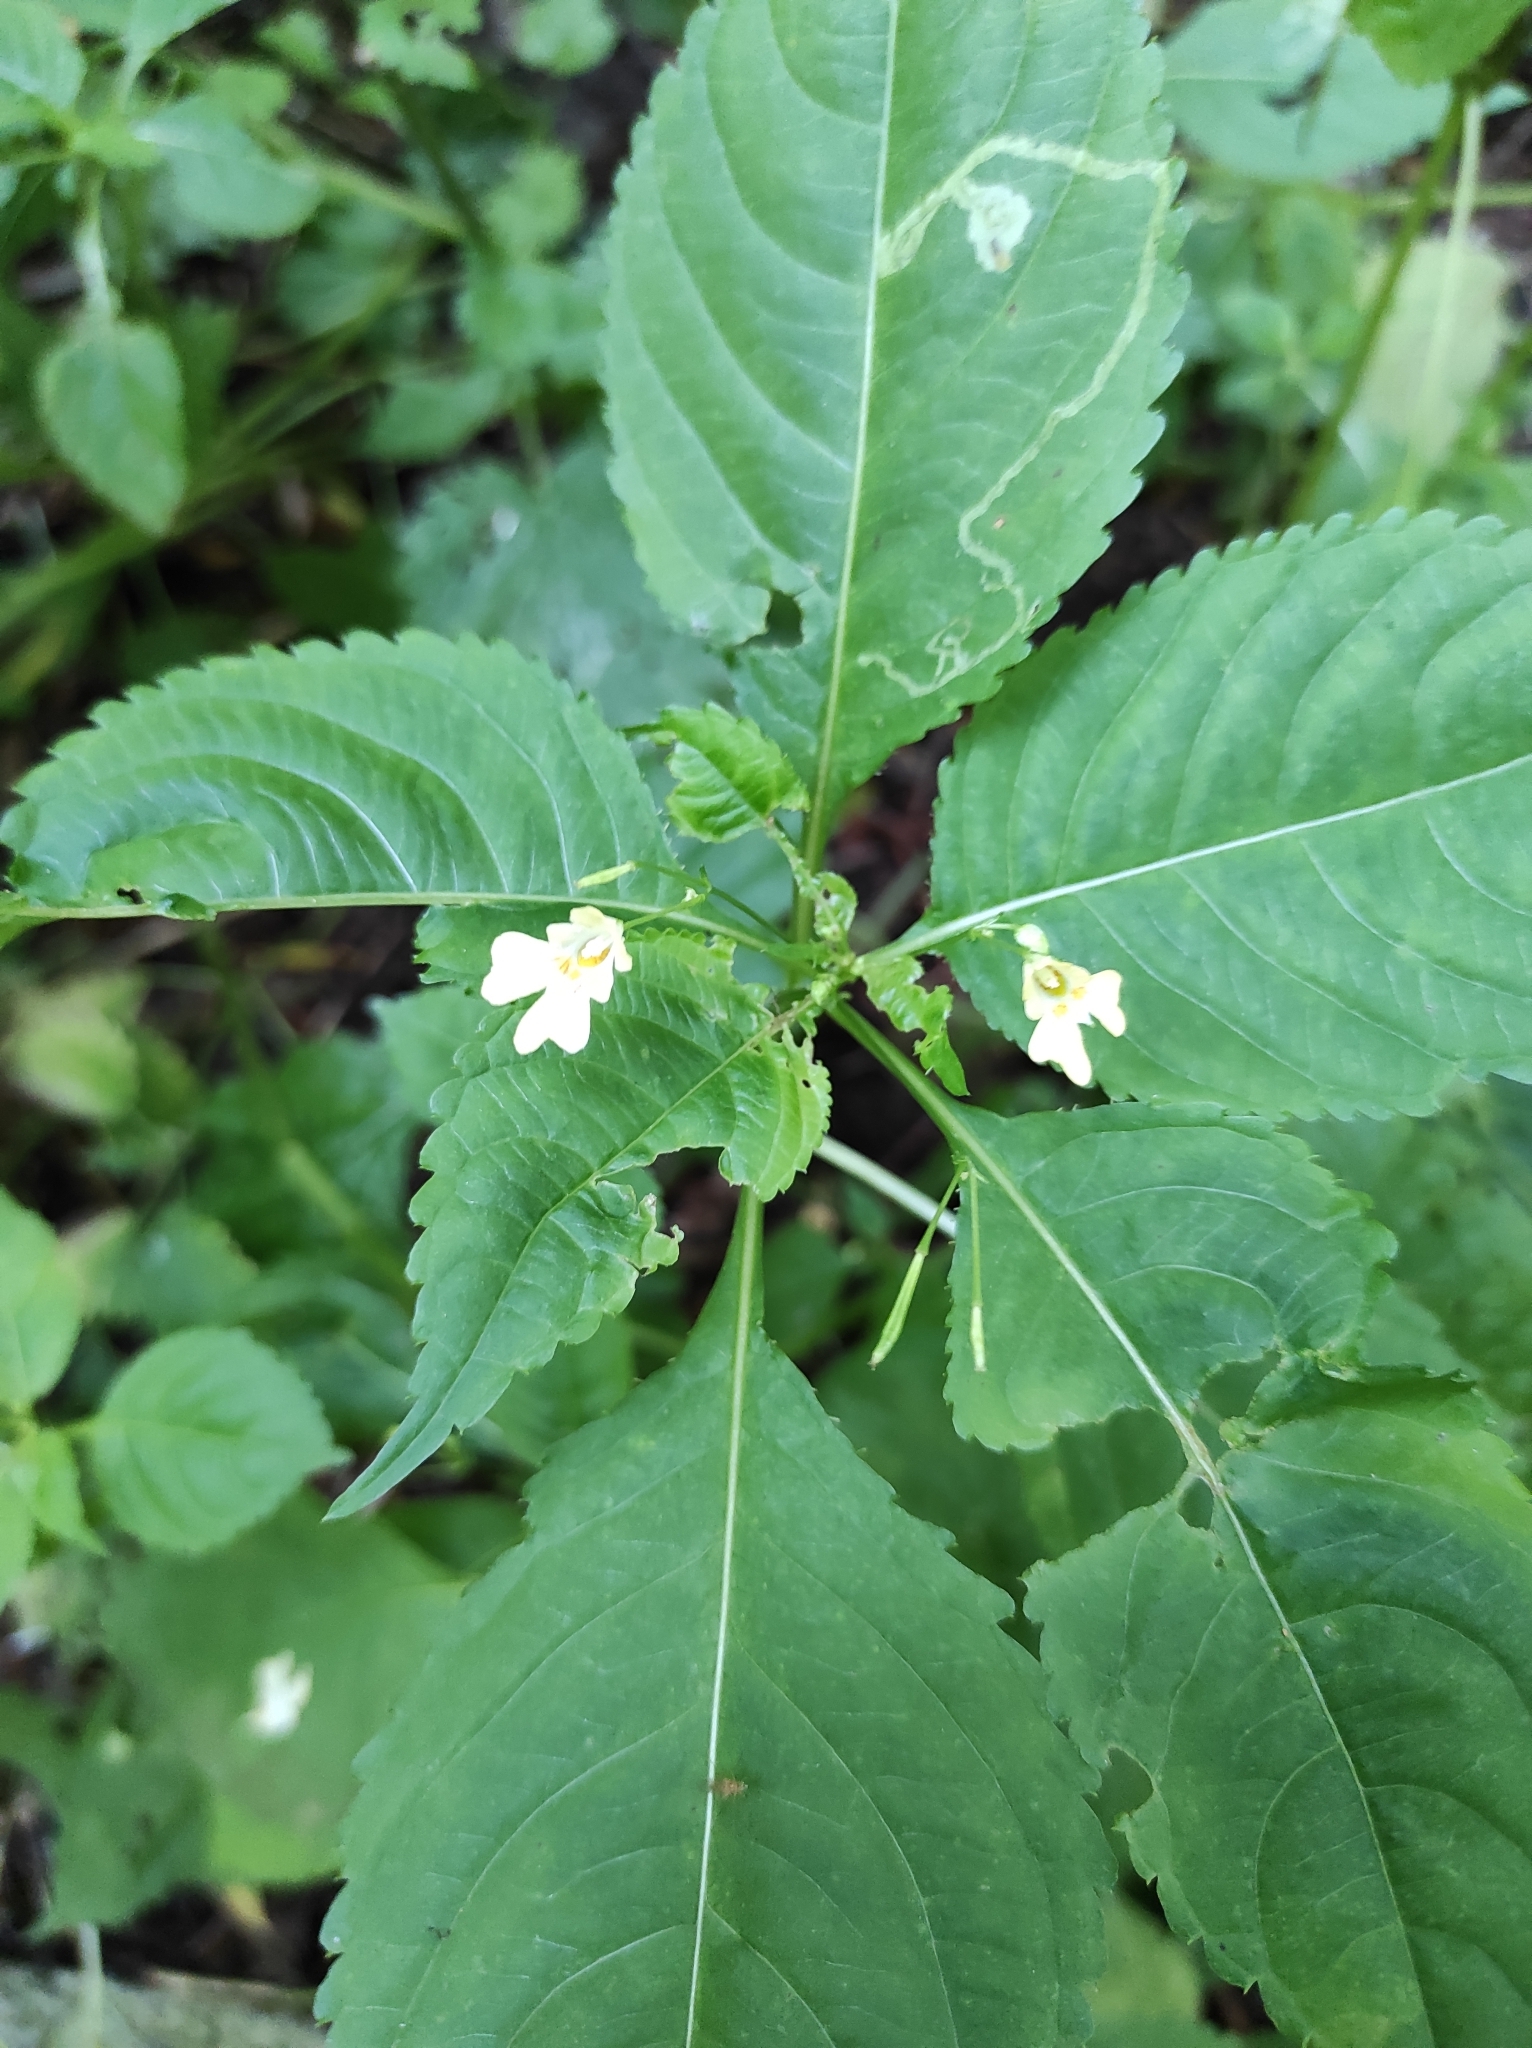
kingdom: Plantae
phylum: Tracheophyta
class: Magnoliopsida
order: Ericales
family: Balsaminaceae
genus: Impatiens
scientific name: Impatiens parviflora
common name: Small balsam
